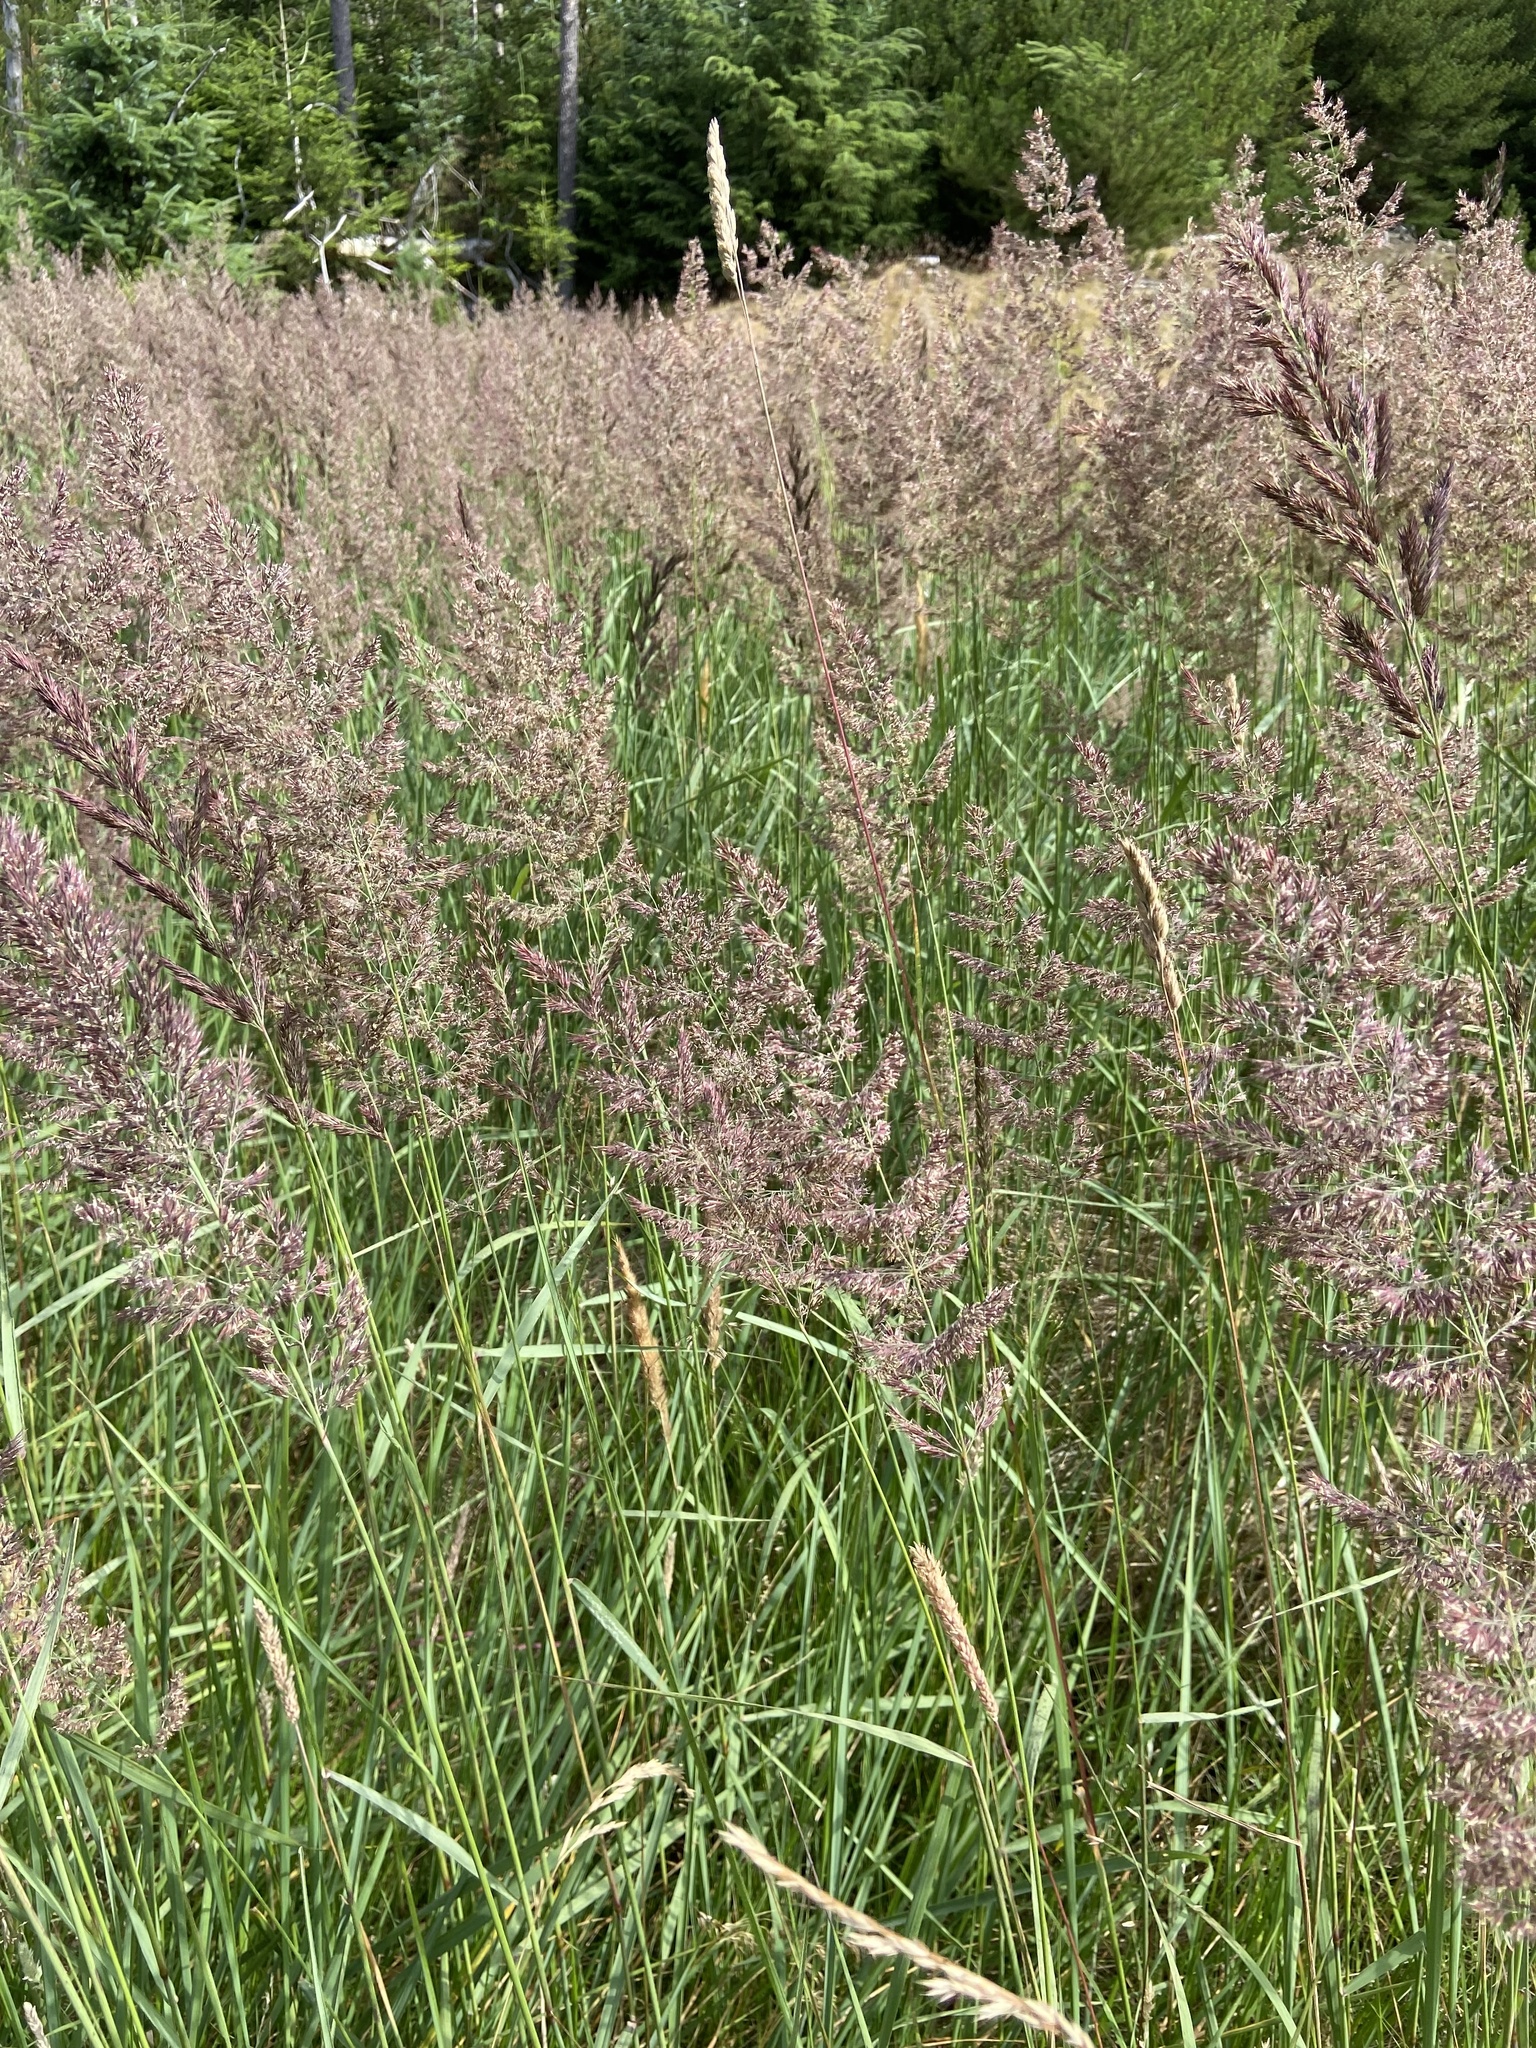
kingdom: Plantae
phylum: Tracheophyta
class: Liliopsida
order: Poales
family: Poaceae
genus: Calamagrostis
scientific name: Calamagrostis epigejos
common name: Wood small-reed
